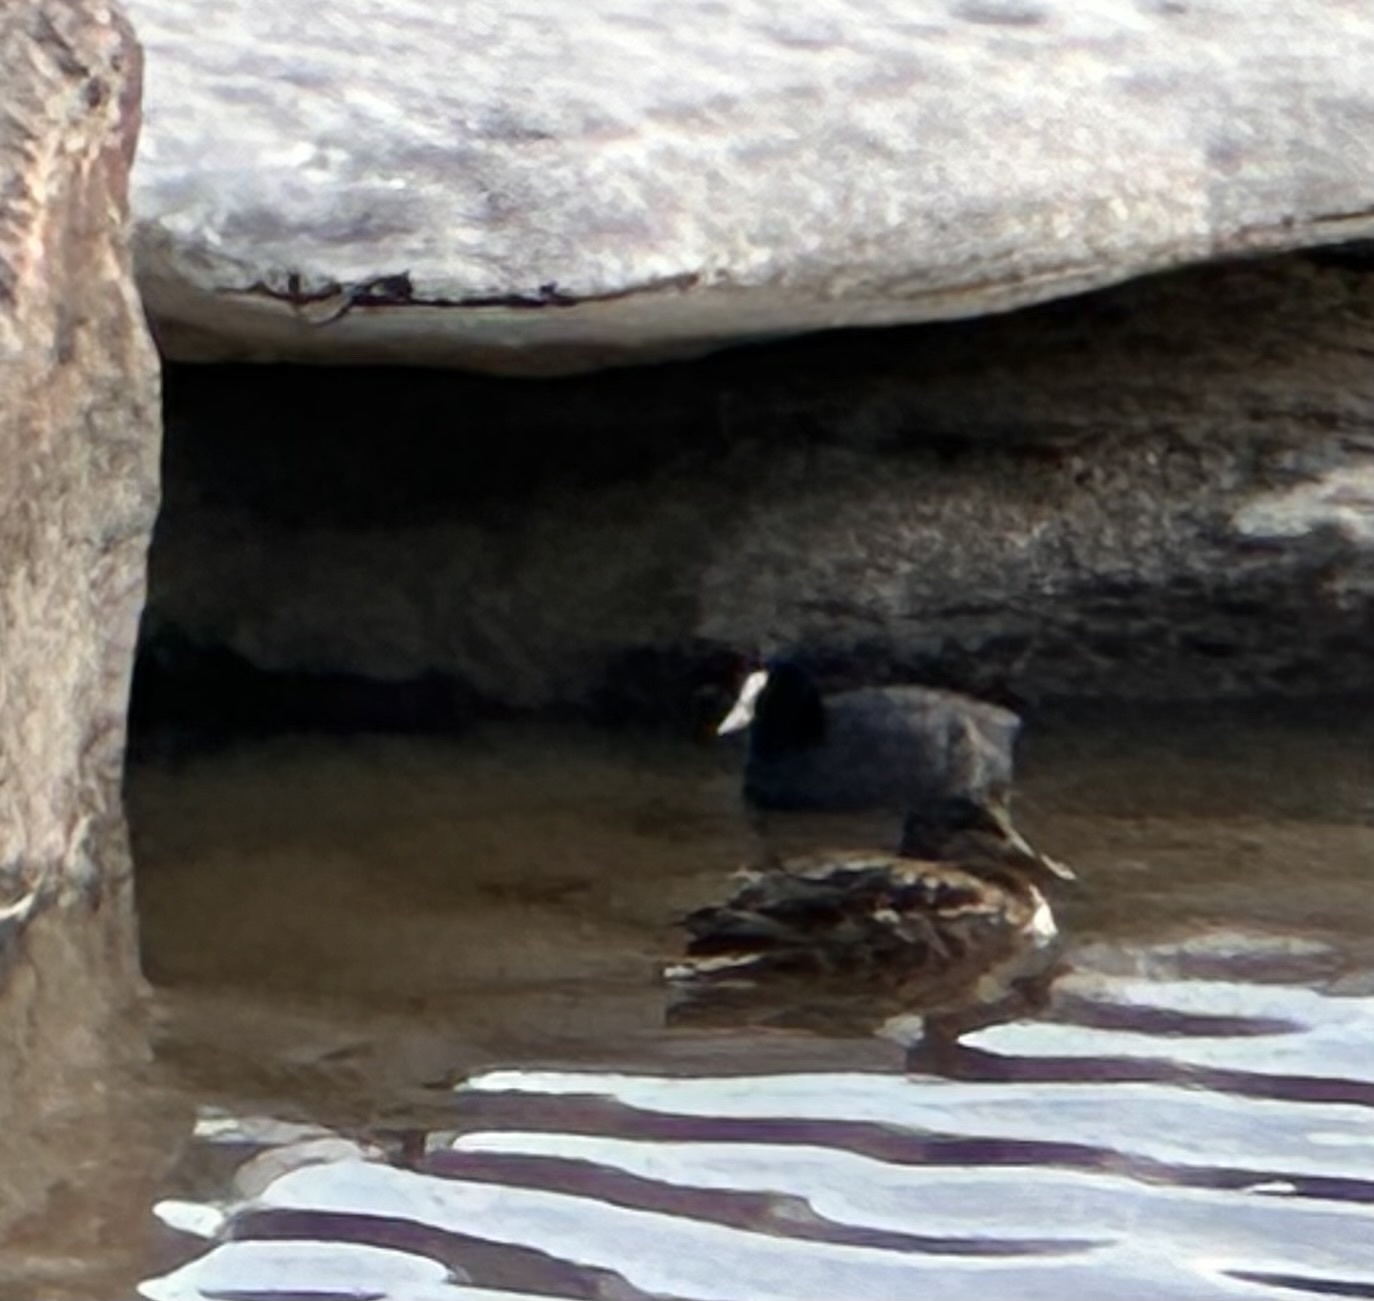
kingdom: Animalia
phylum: Chordata
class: Aves
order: Gruiformes
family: Rallidae
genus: Fulica
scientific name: Fulica atra
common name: Eurasian coot
